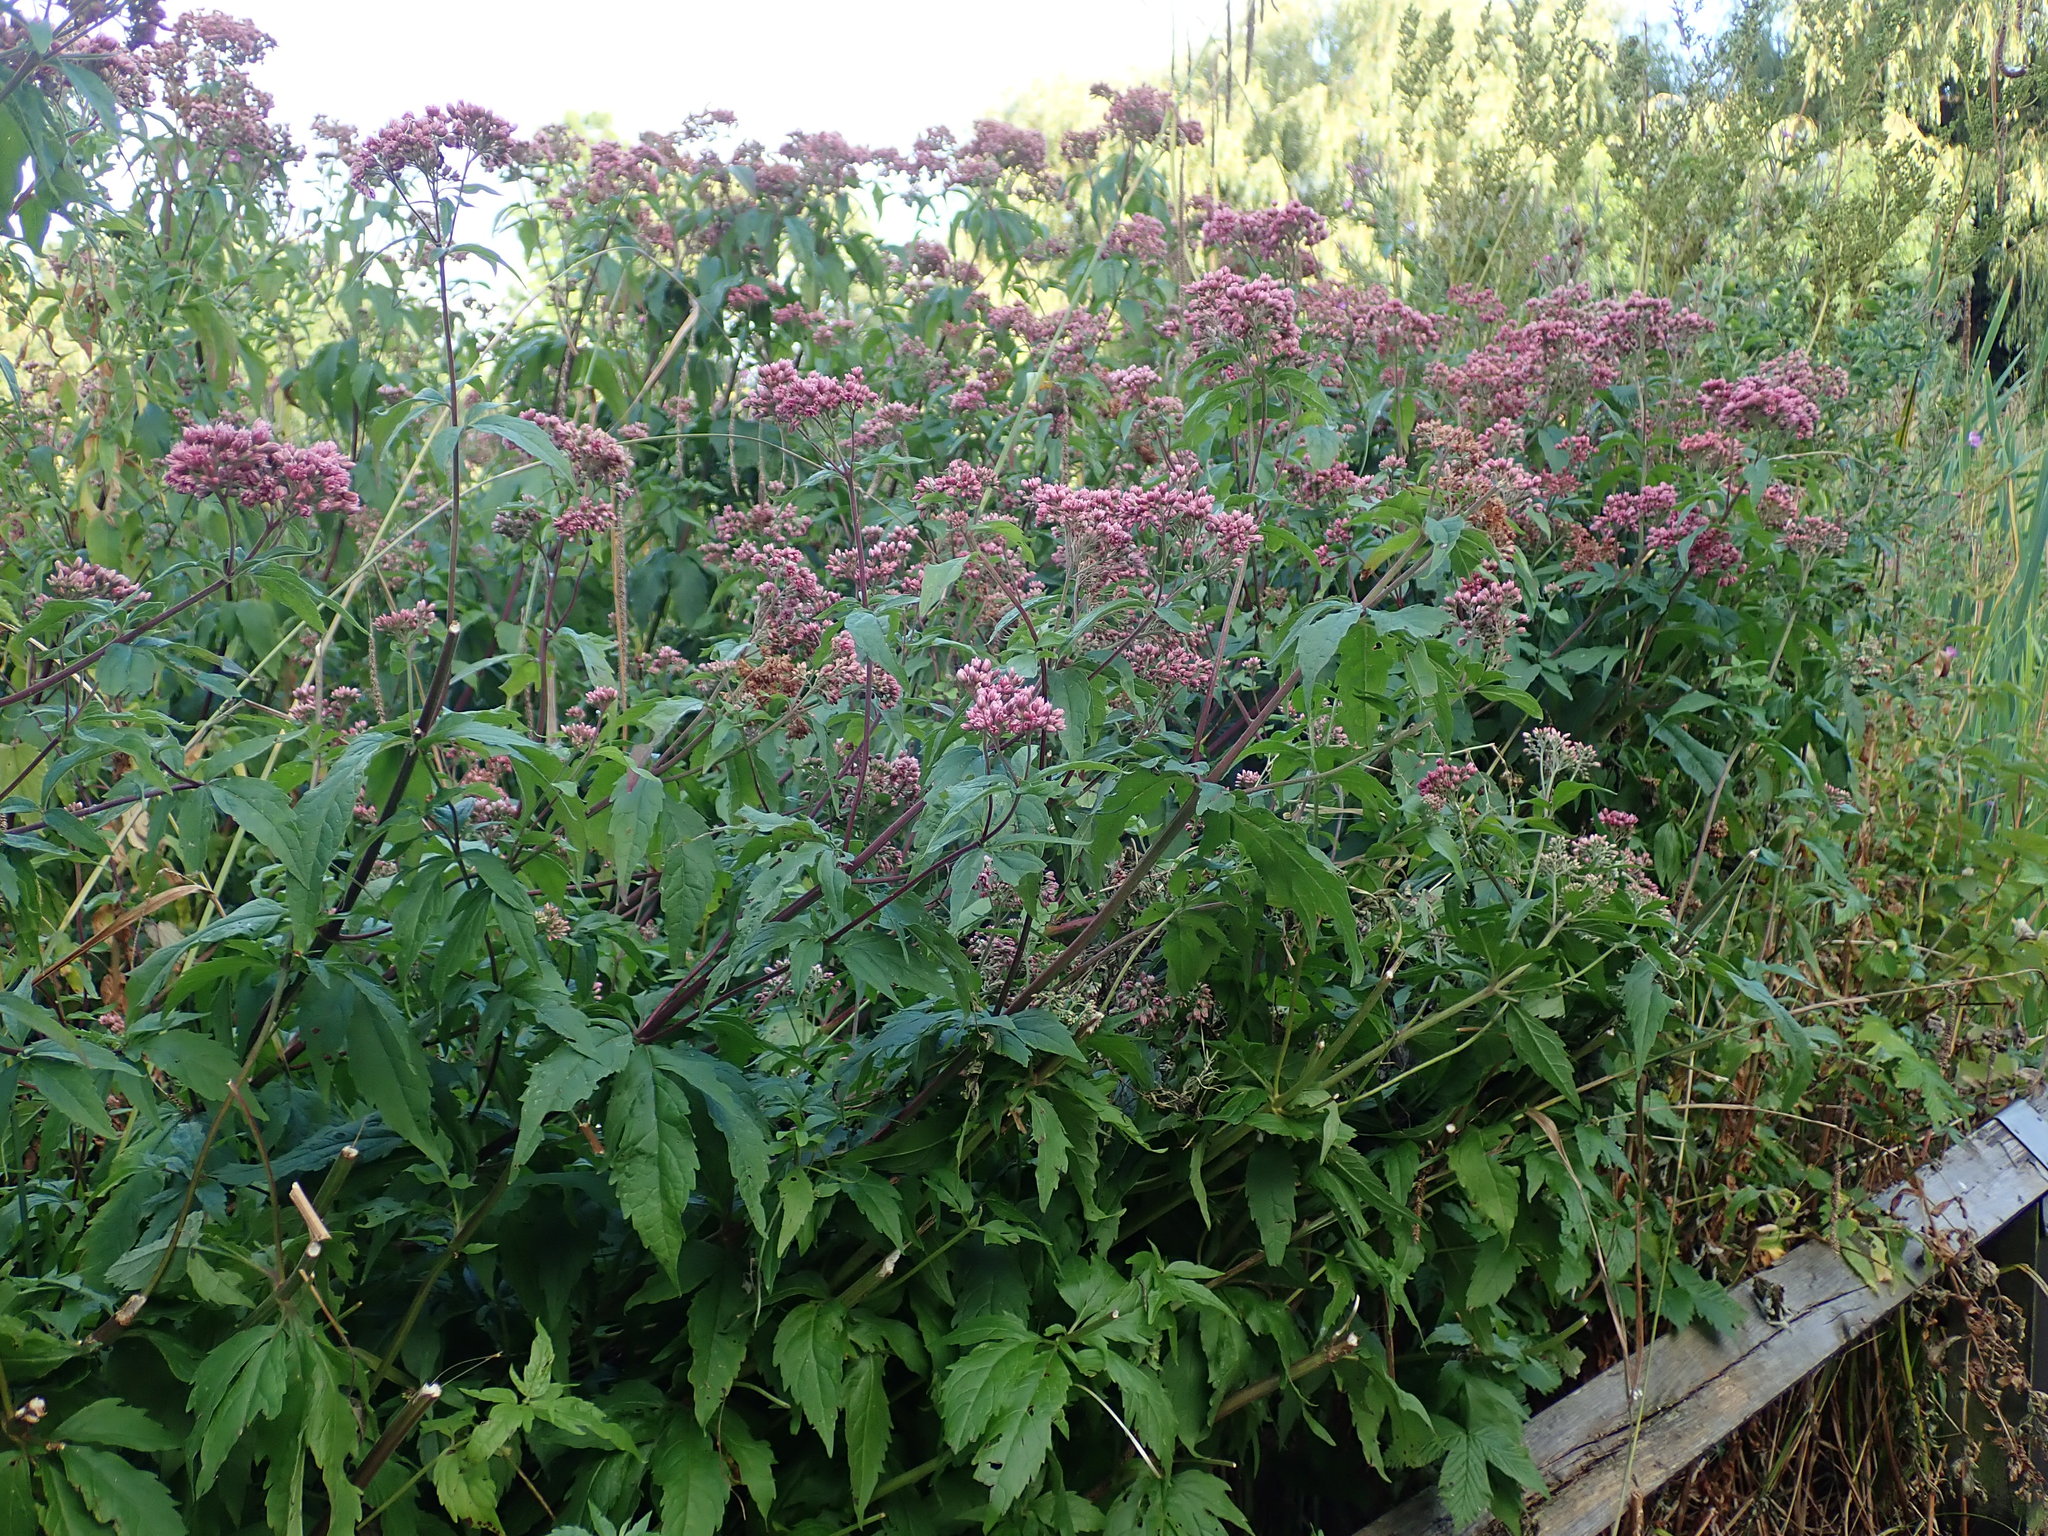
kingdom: Plantae
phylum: Tracheophyta
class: Magnoliopsida
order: Asterales
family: Asteraceae
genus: Eupatorium
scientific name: Eupatorium cannabinum
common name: Hemp-agrimony
